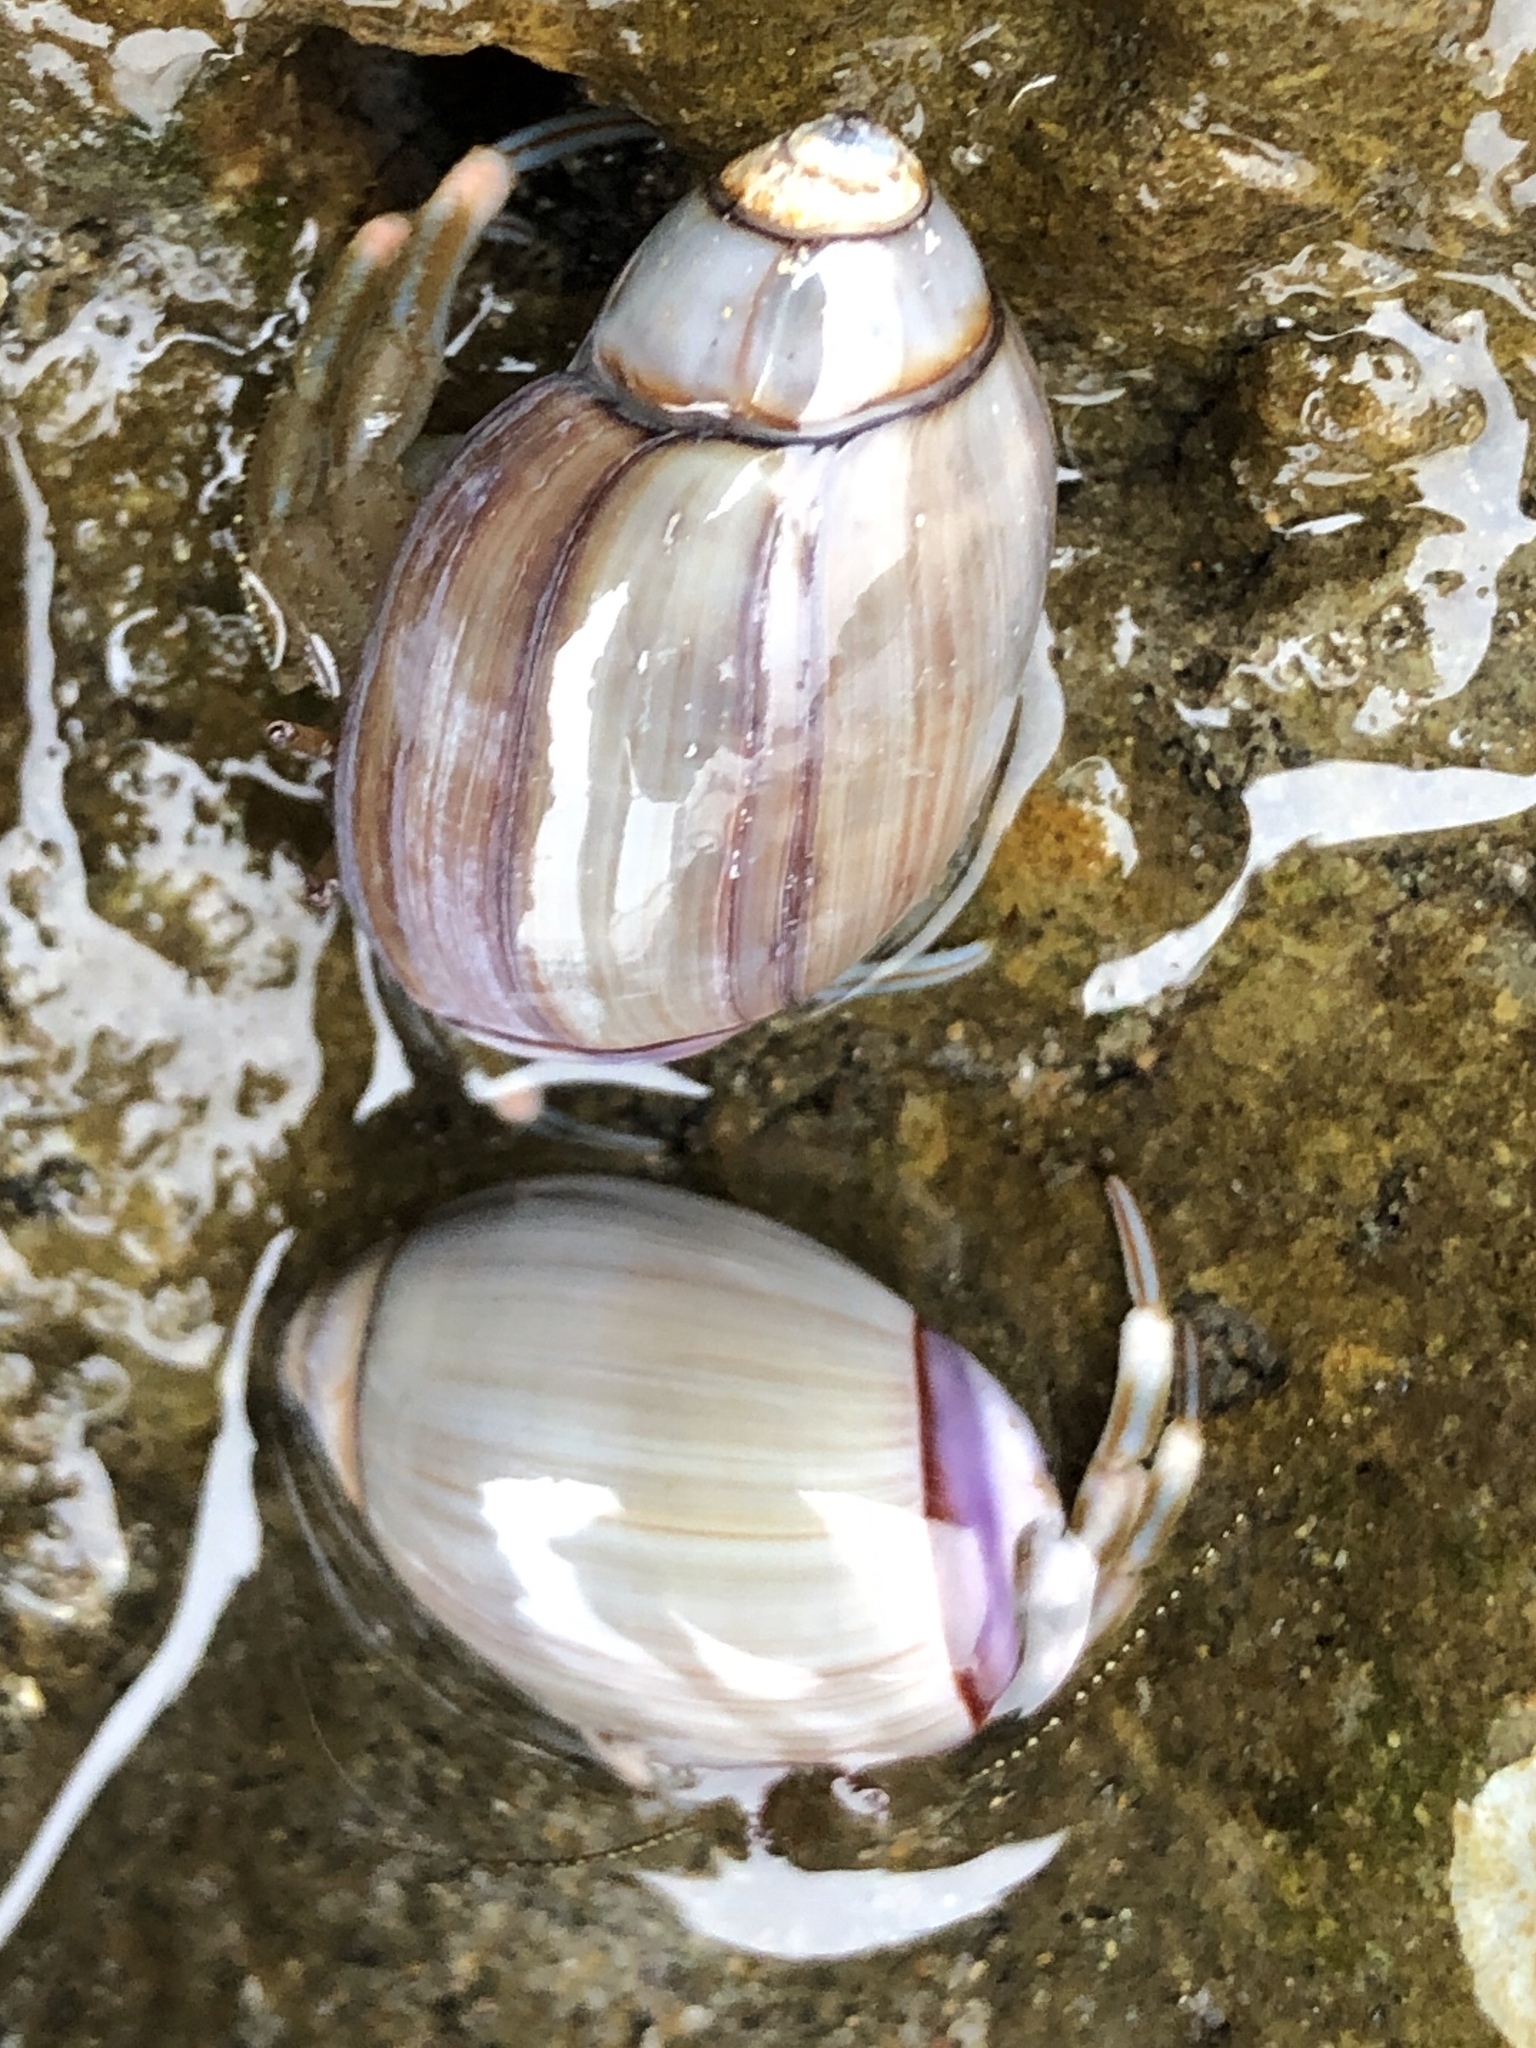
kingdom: Animalia
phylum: Arthropoda
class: Malacostraca
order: Decapoda
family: Paguridae
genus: Pagurus
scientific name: Pagurus venturensis
